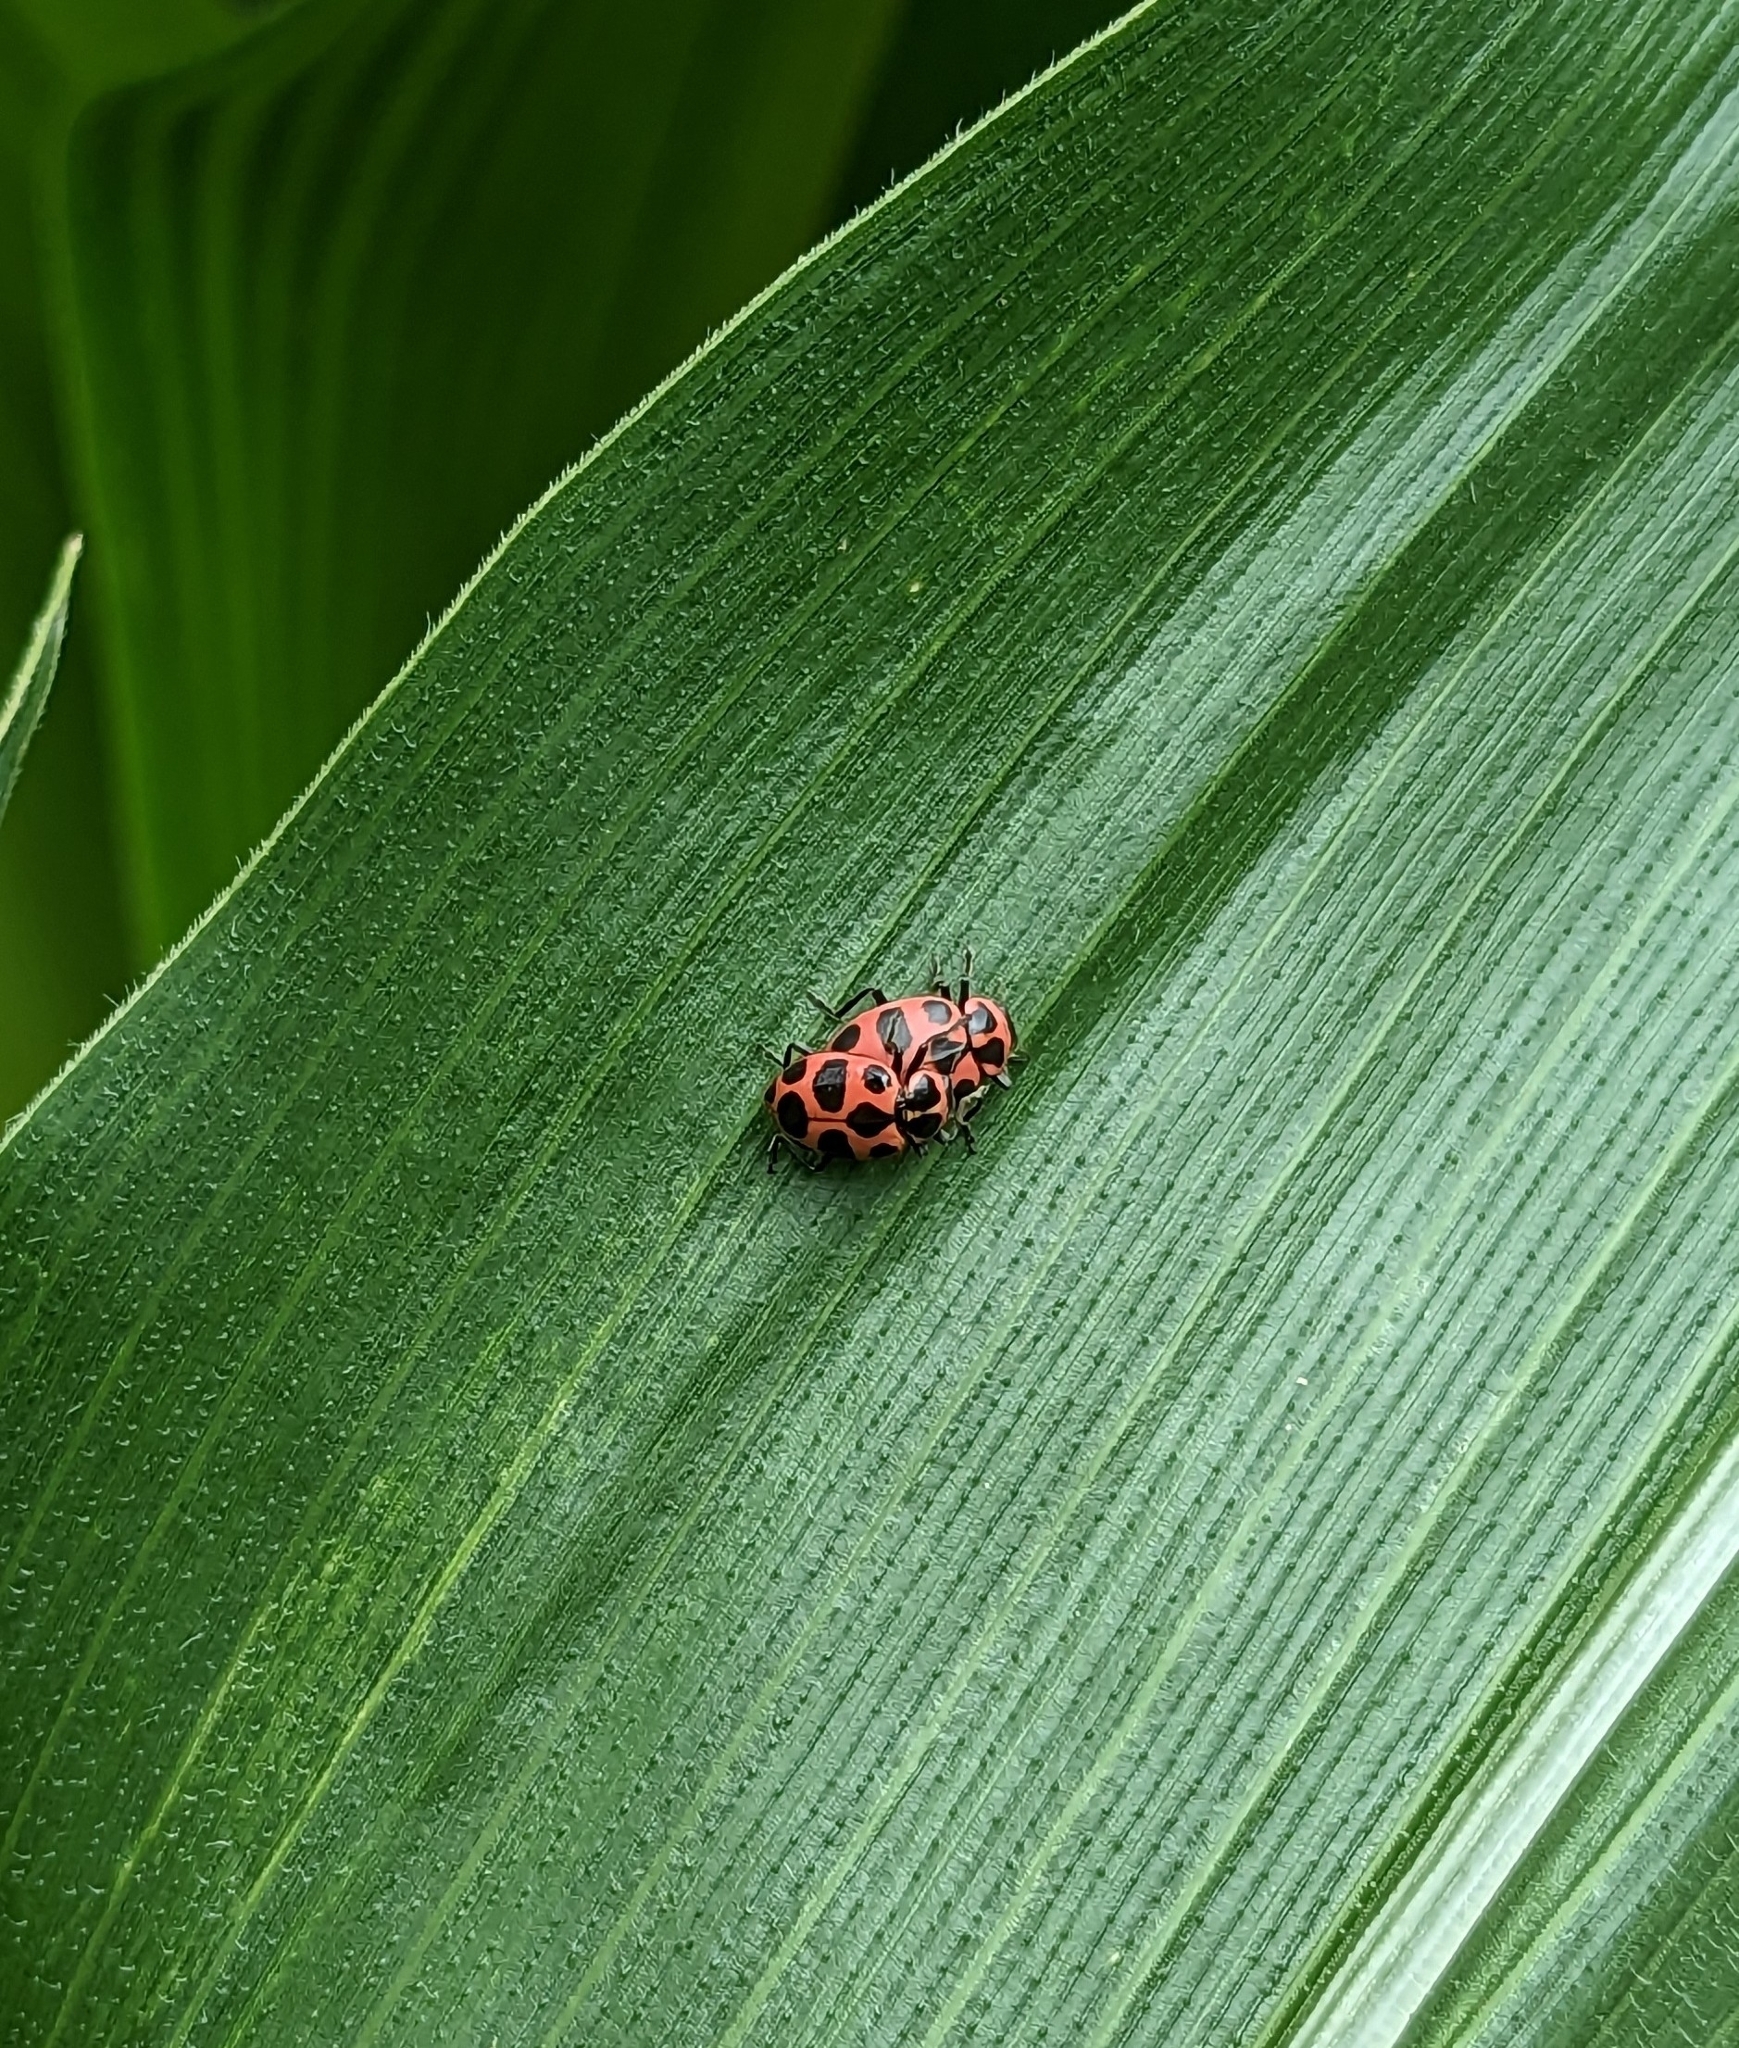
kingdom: Animalia
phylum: Arthropoda
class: Insecta
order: Coleoptera
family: Coccinellidae
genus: Coleomegilla
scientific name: Coleomegilla maculata
